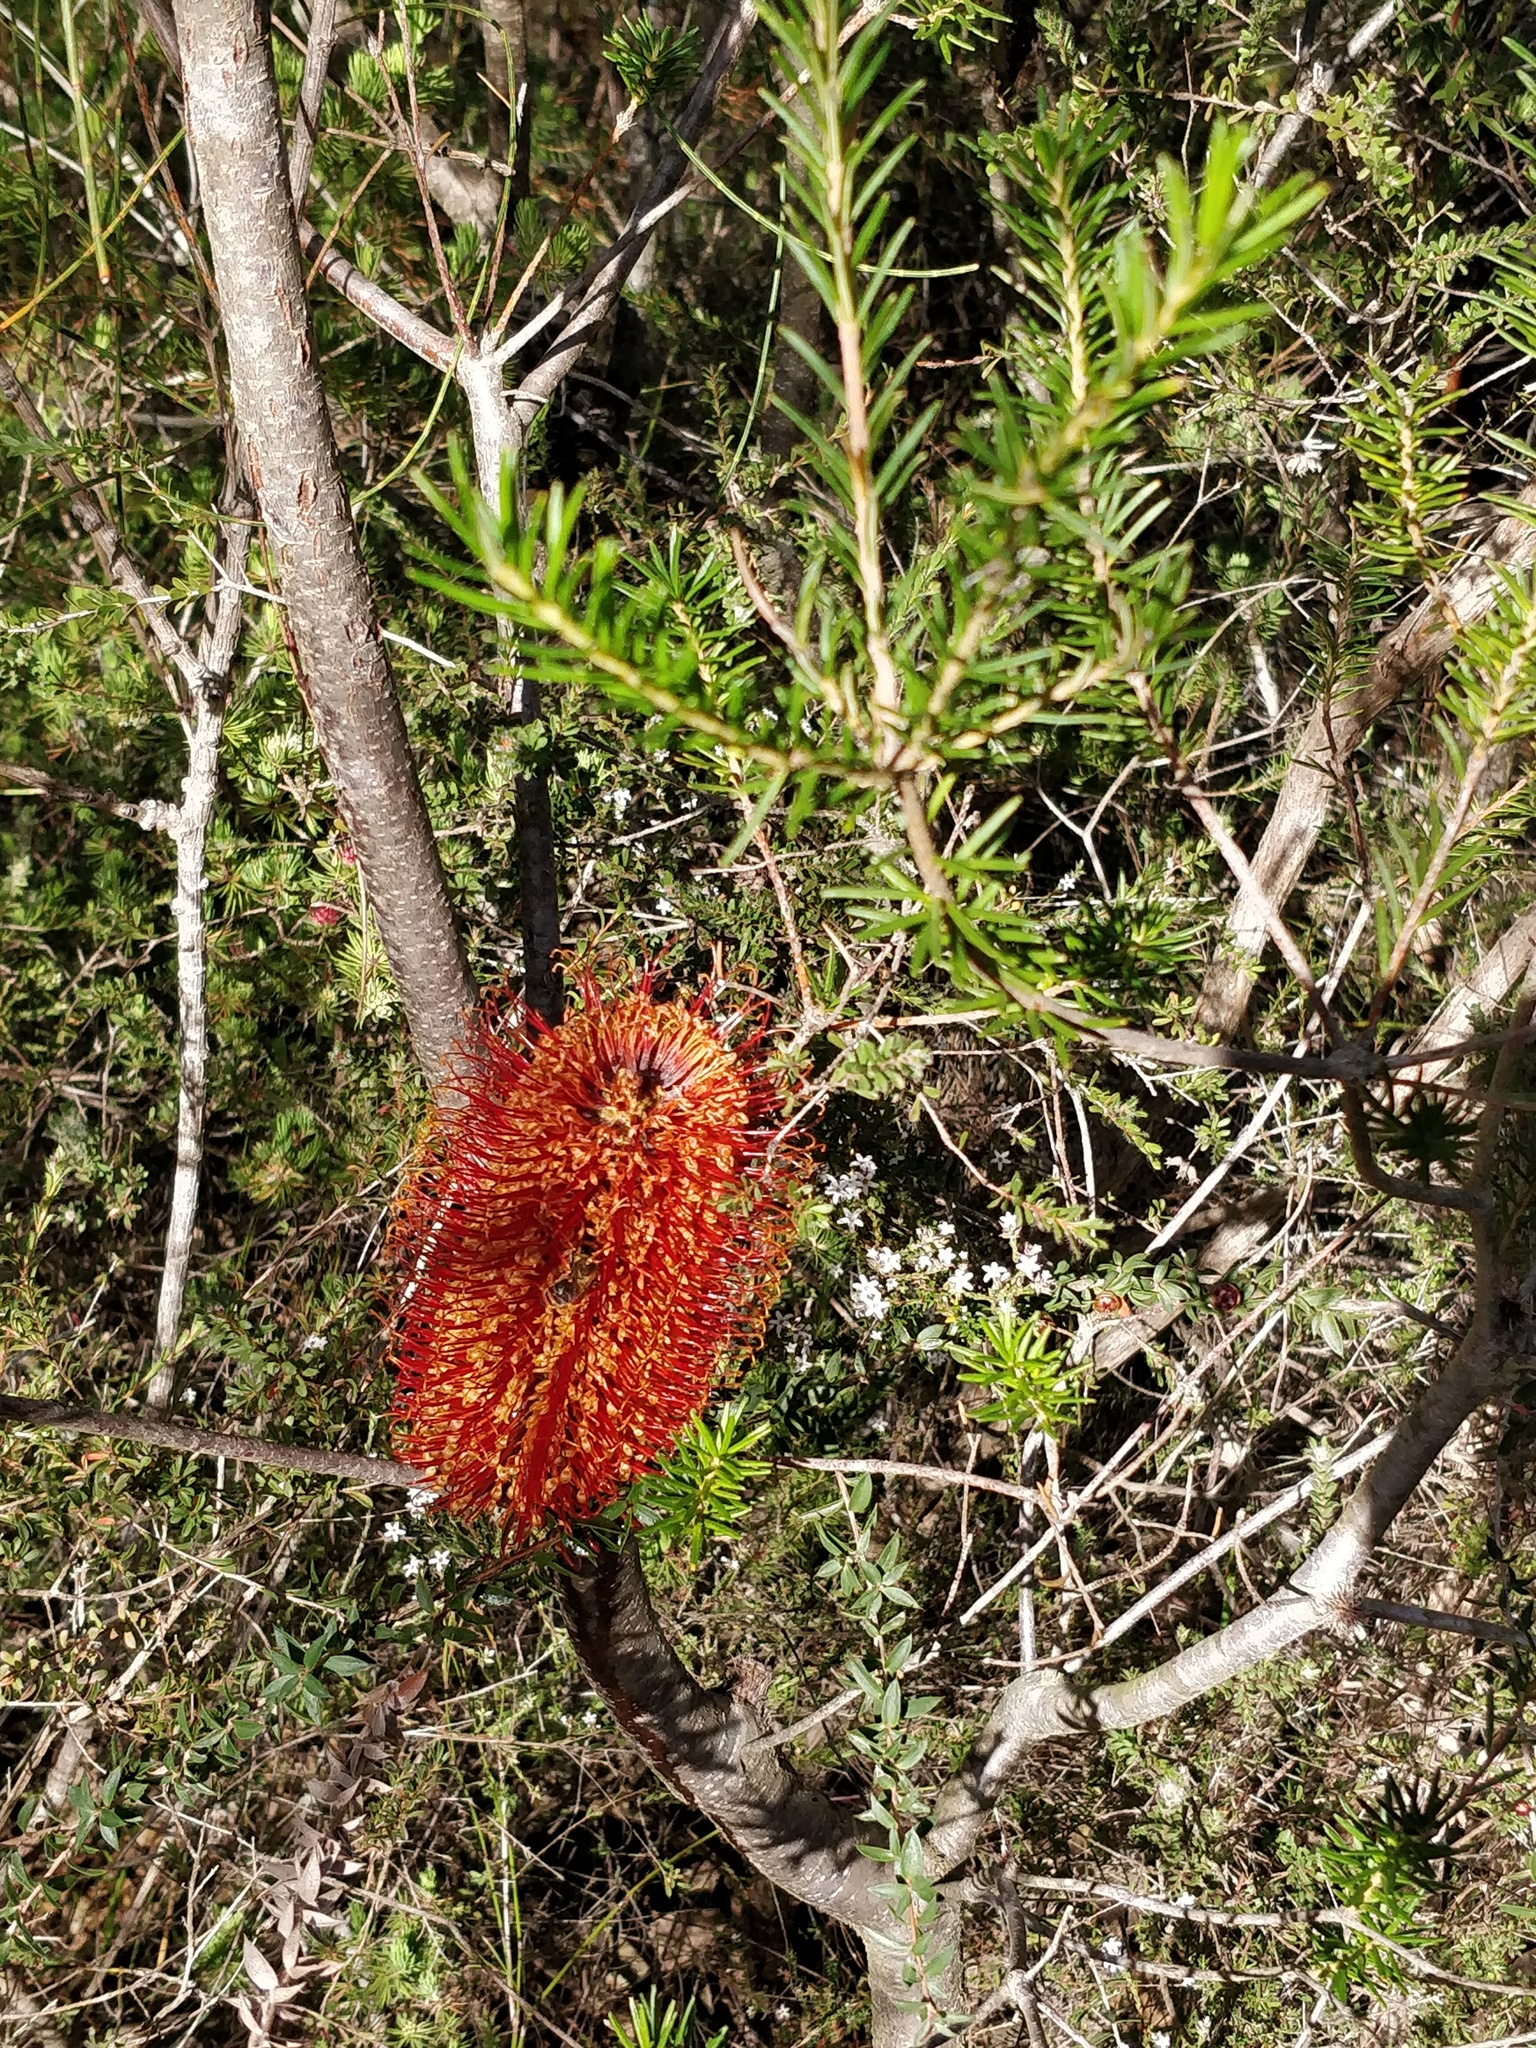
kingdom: Plantae
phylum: Tracheophyta
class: Magnoliopsida
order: Proteales
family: Proteaceae
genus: Banksia
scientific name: Banksia ericifolia
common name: Heath-leaf banksia
